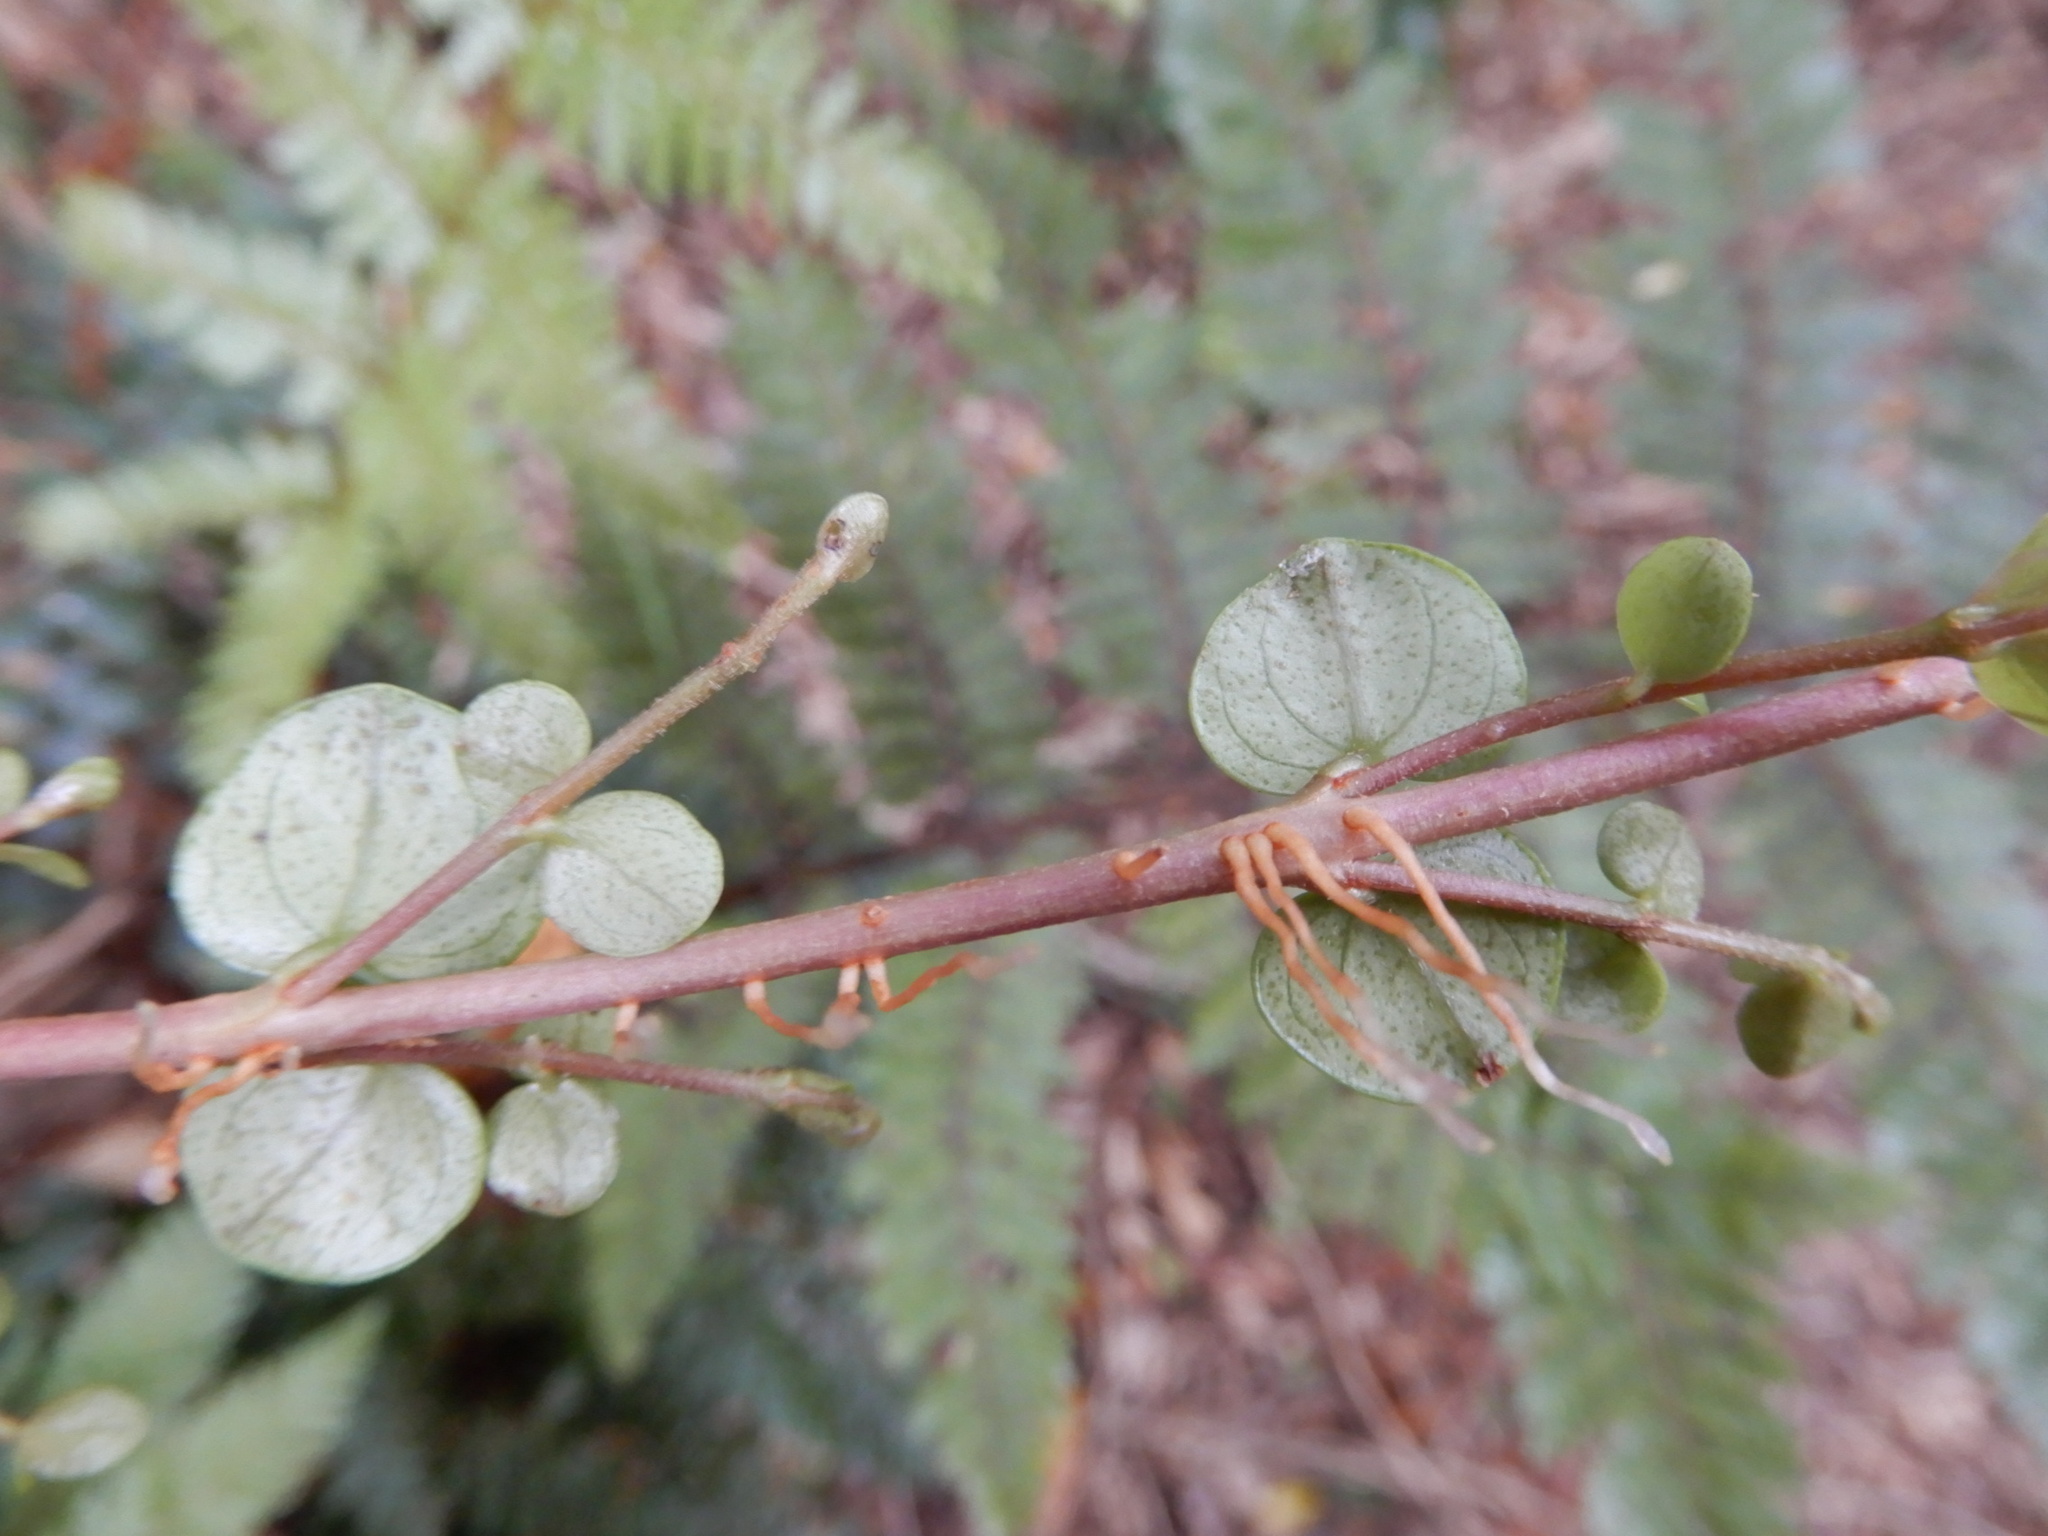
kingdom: Plantae
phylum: Tracheophyta
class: Magnoliopsida
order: Myrtales
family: Myrtaceae
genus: Metrosideros
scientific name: Metrosideros perforata
